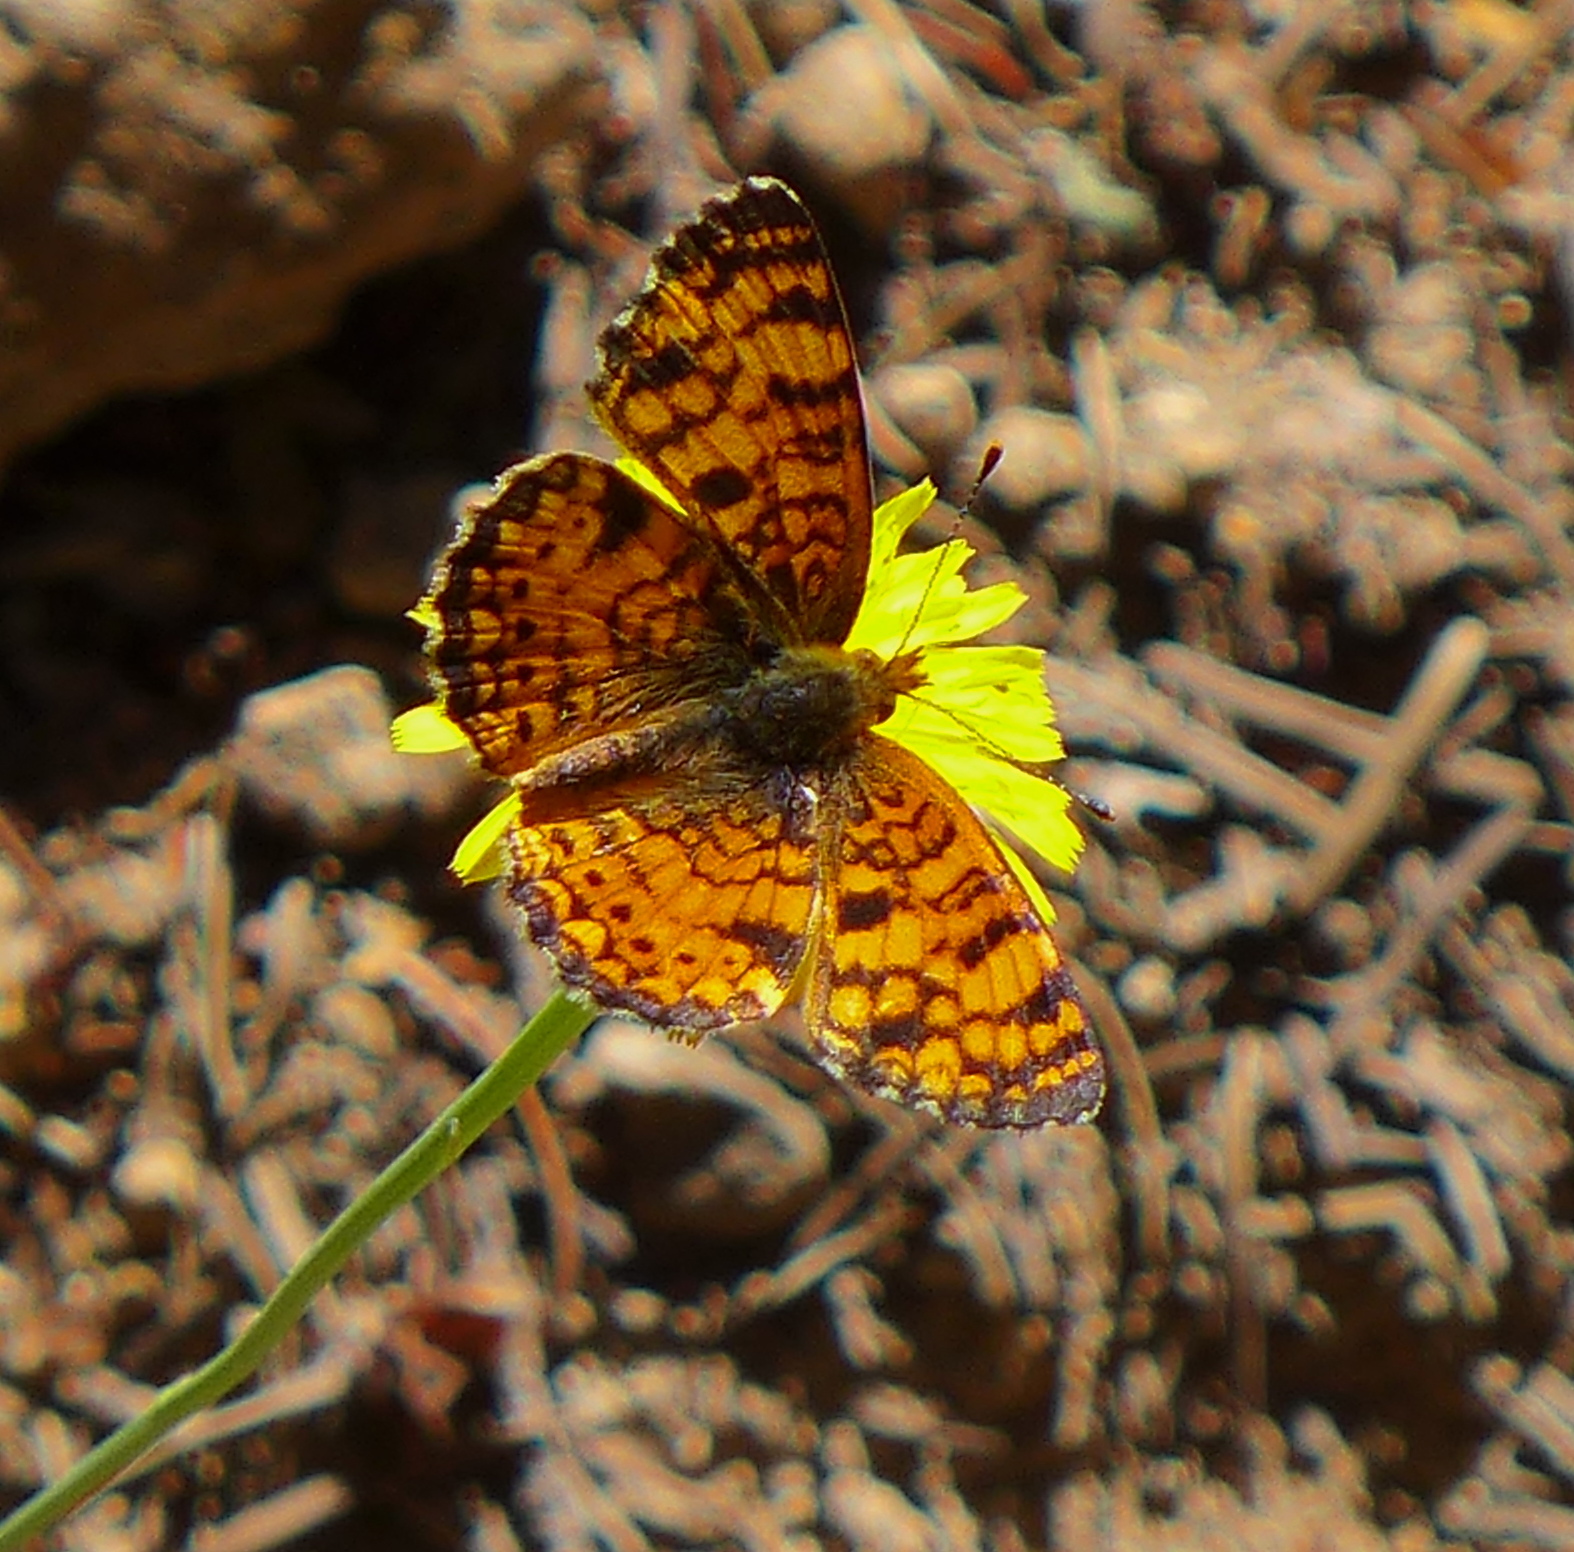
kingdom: Animalia
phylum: Arthropoda
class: Insecta
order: Lepidoptera
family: Nymphalidae
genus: Eresia
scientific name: Eresia aveyrona
